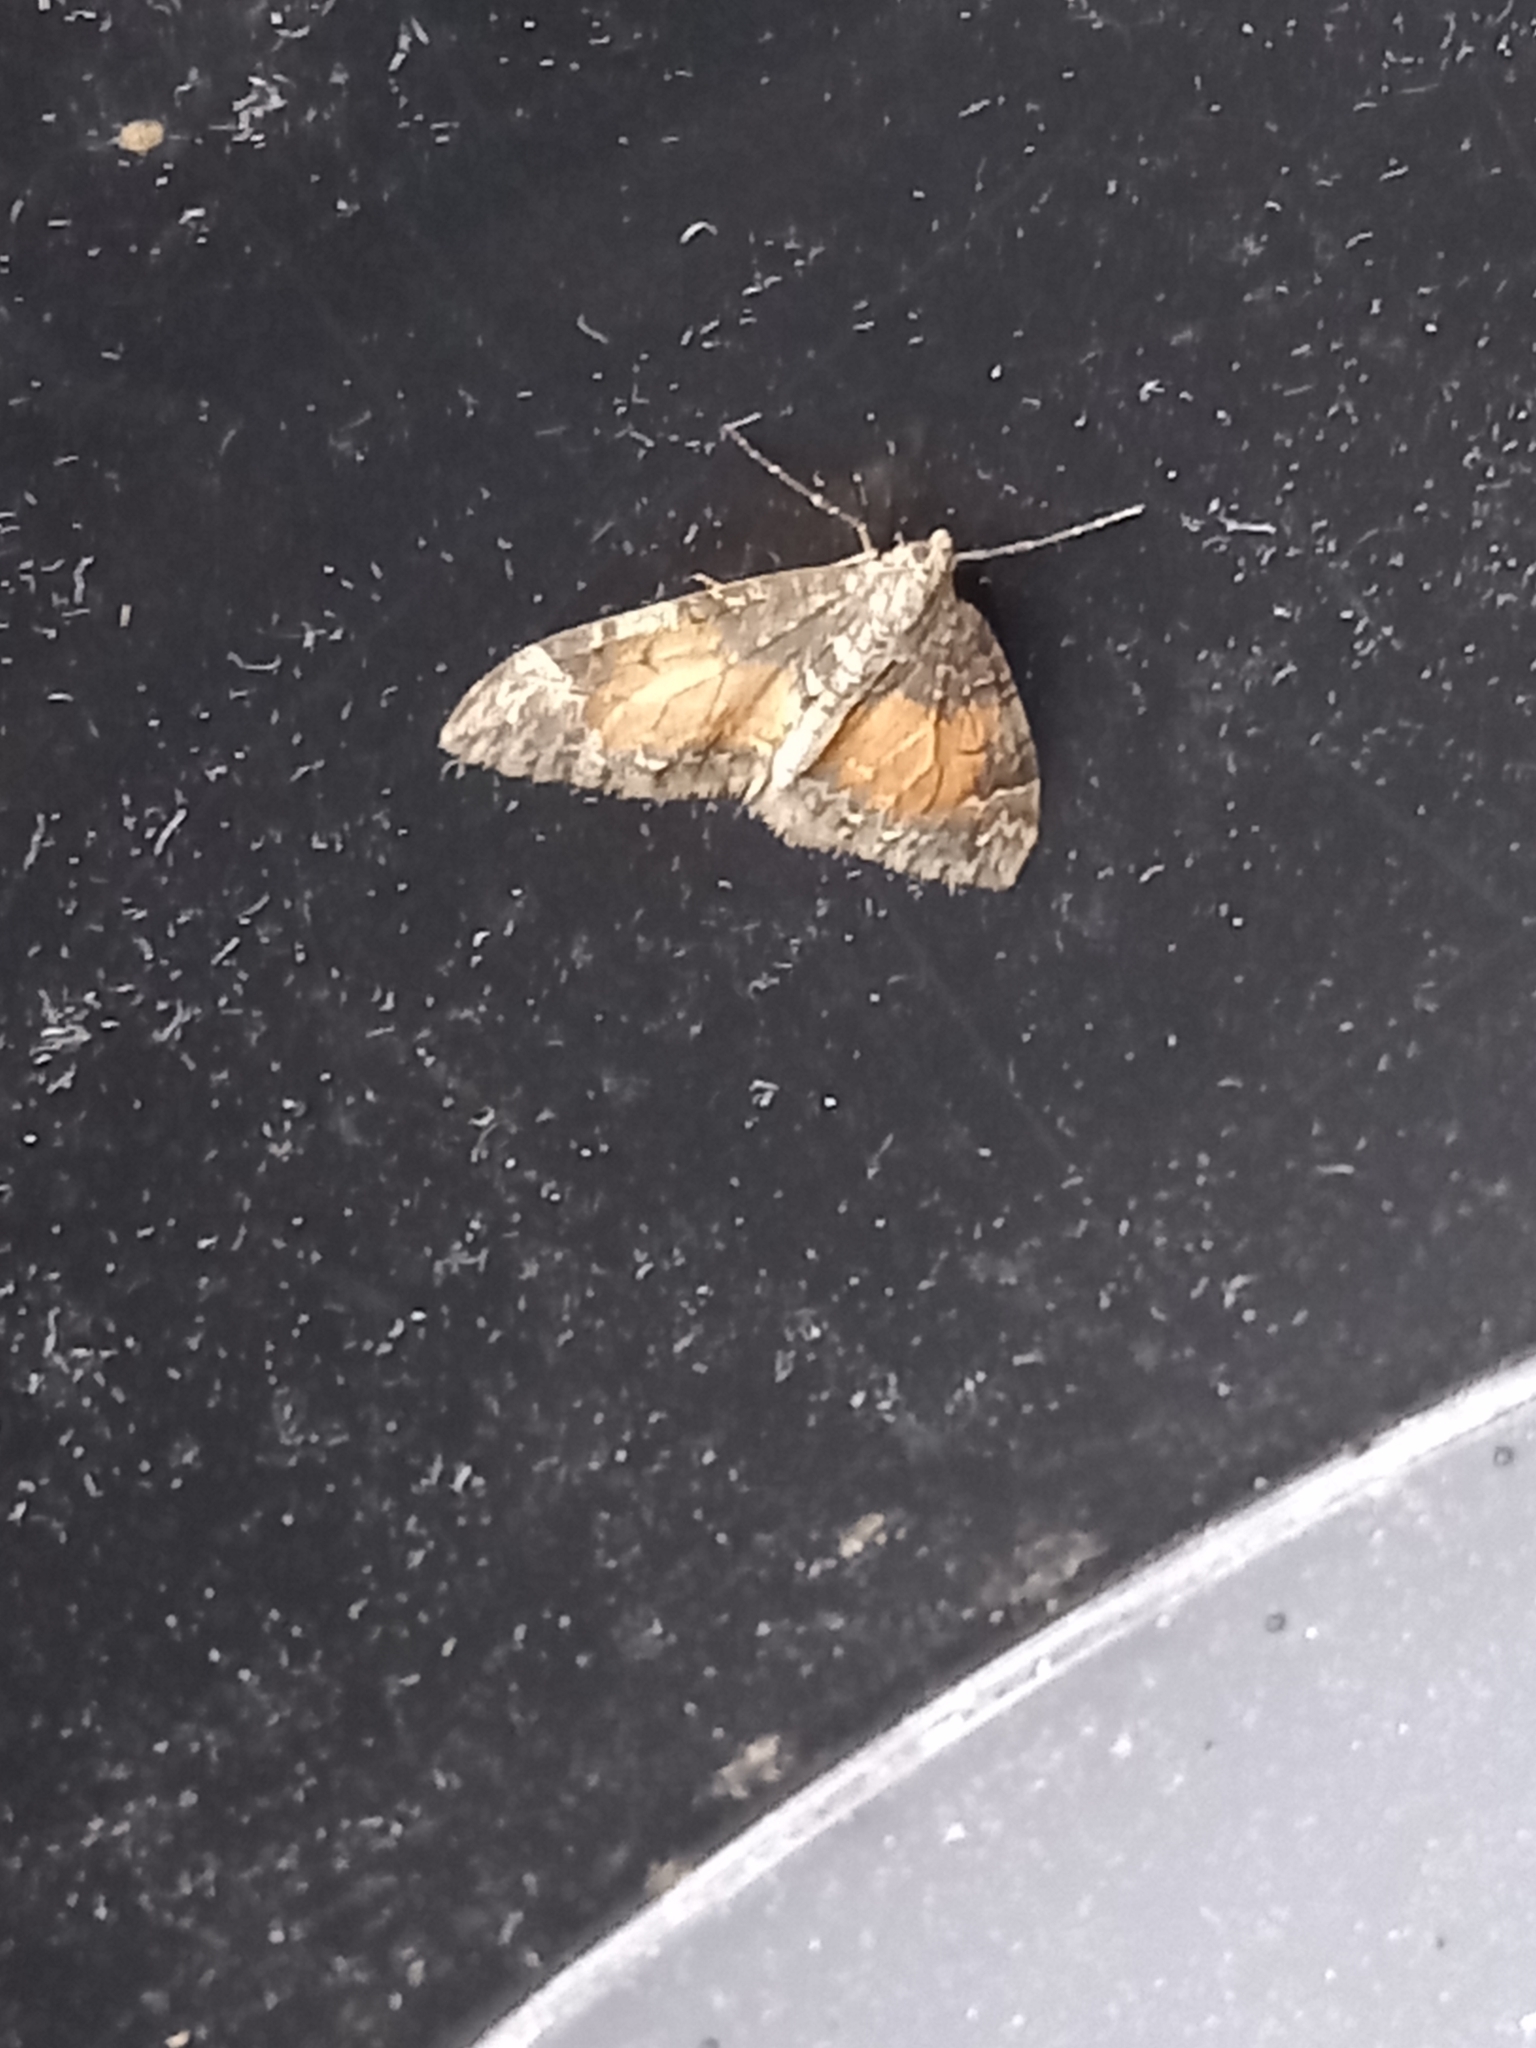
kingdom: Animalia
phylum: Arthropoda
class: Insecta
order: Lepidoptera
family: Geometridae
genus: Dysstroma
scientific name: Dysstroma truncata
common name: Common marbled carpet
